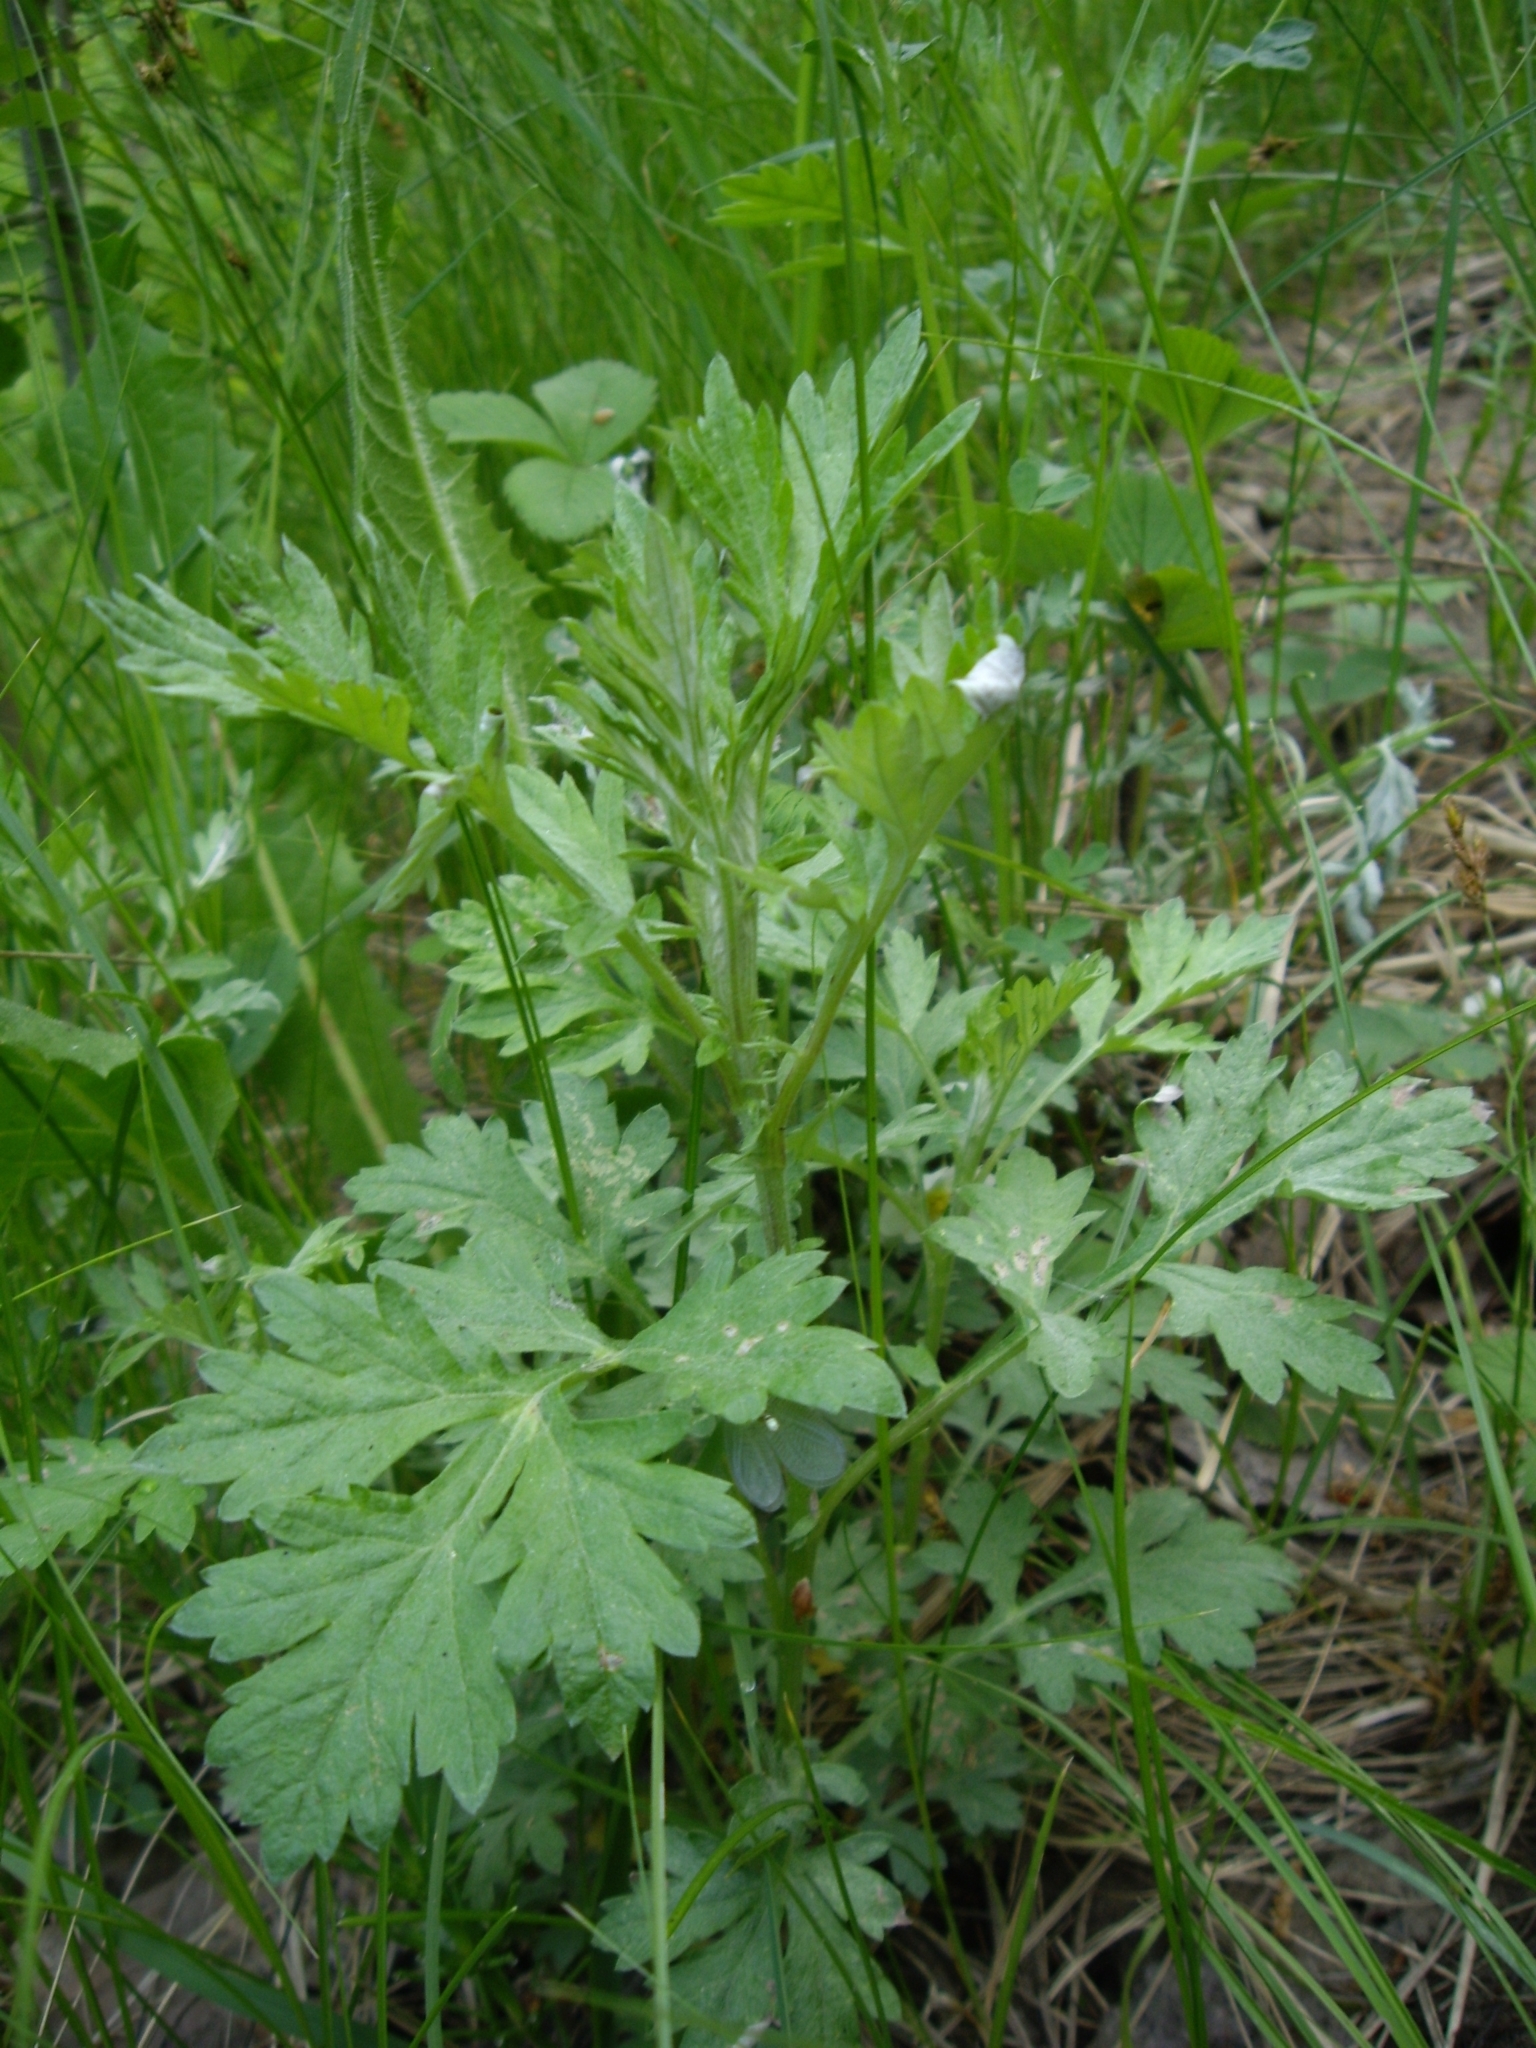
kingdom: Plantae
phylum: Tracheophyta
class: Magnoliopsida
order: Asterales
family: Asteraceae
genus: Artemisia
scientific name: Artemisia vulgaris
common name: Mugwort
